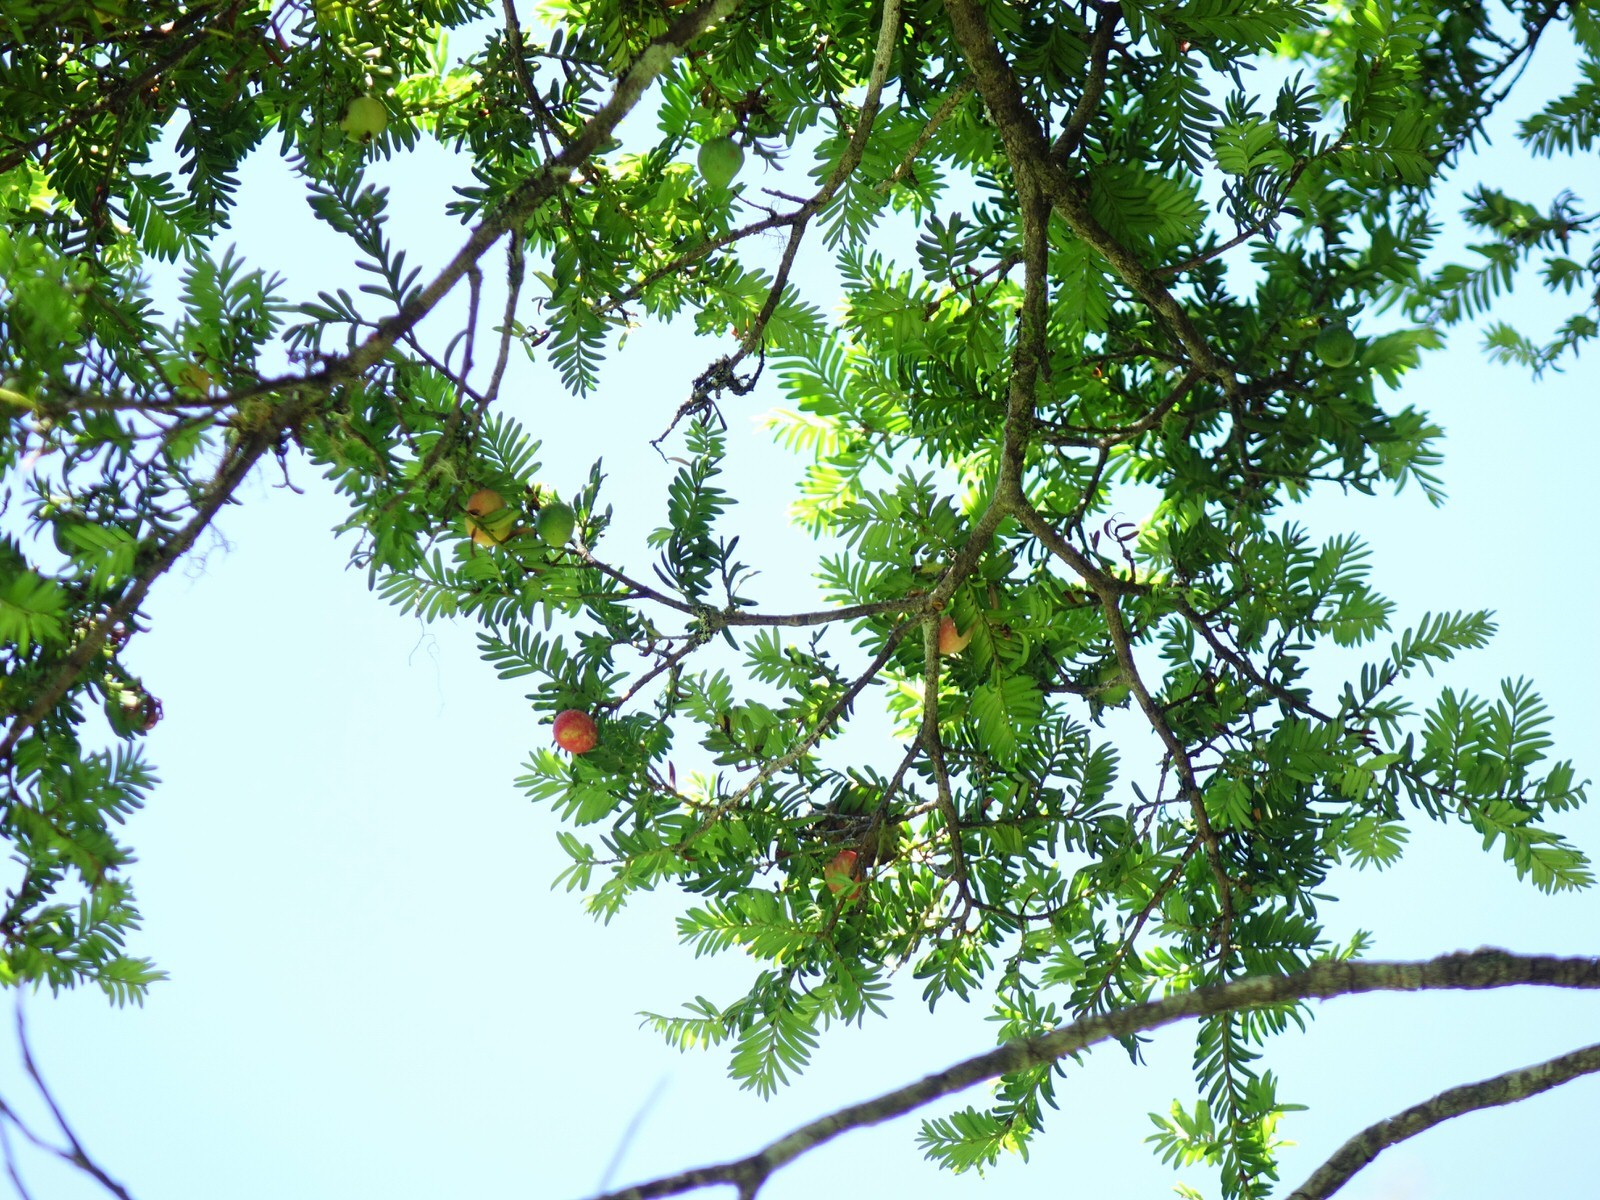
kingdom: Plantae
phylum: Tracheophyta
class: Pinopsida
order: Pinales
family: Podocarpaceae
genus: Prumnopitys
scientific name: Prumnopitys ferruginea
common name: Brown pine
